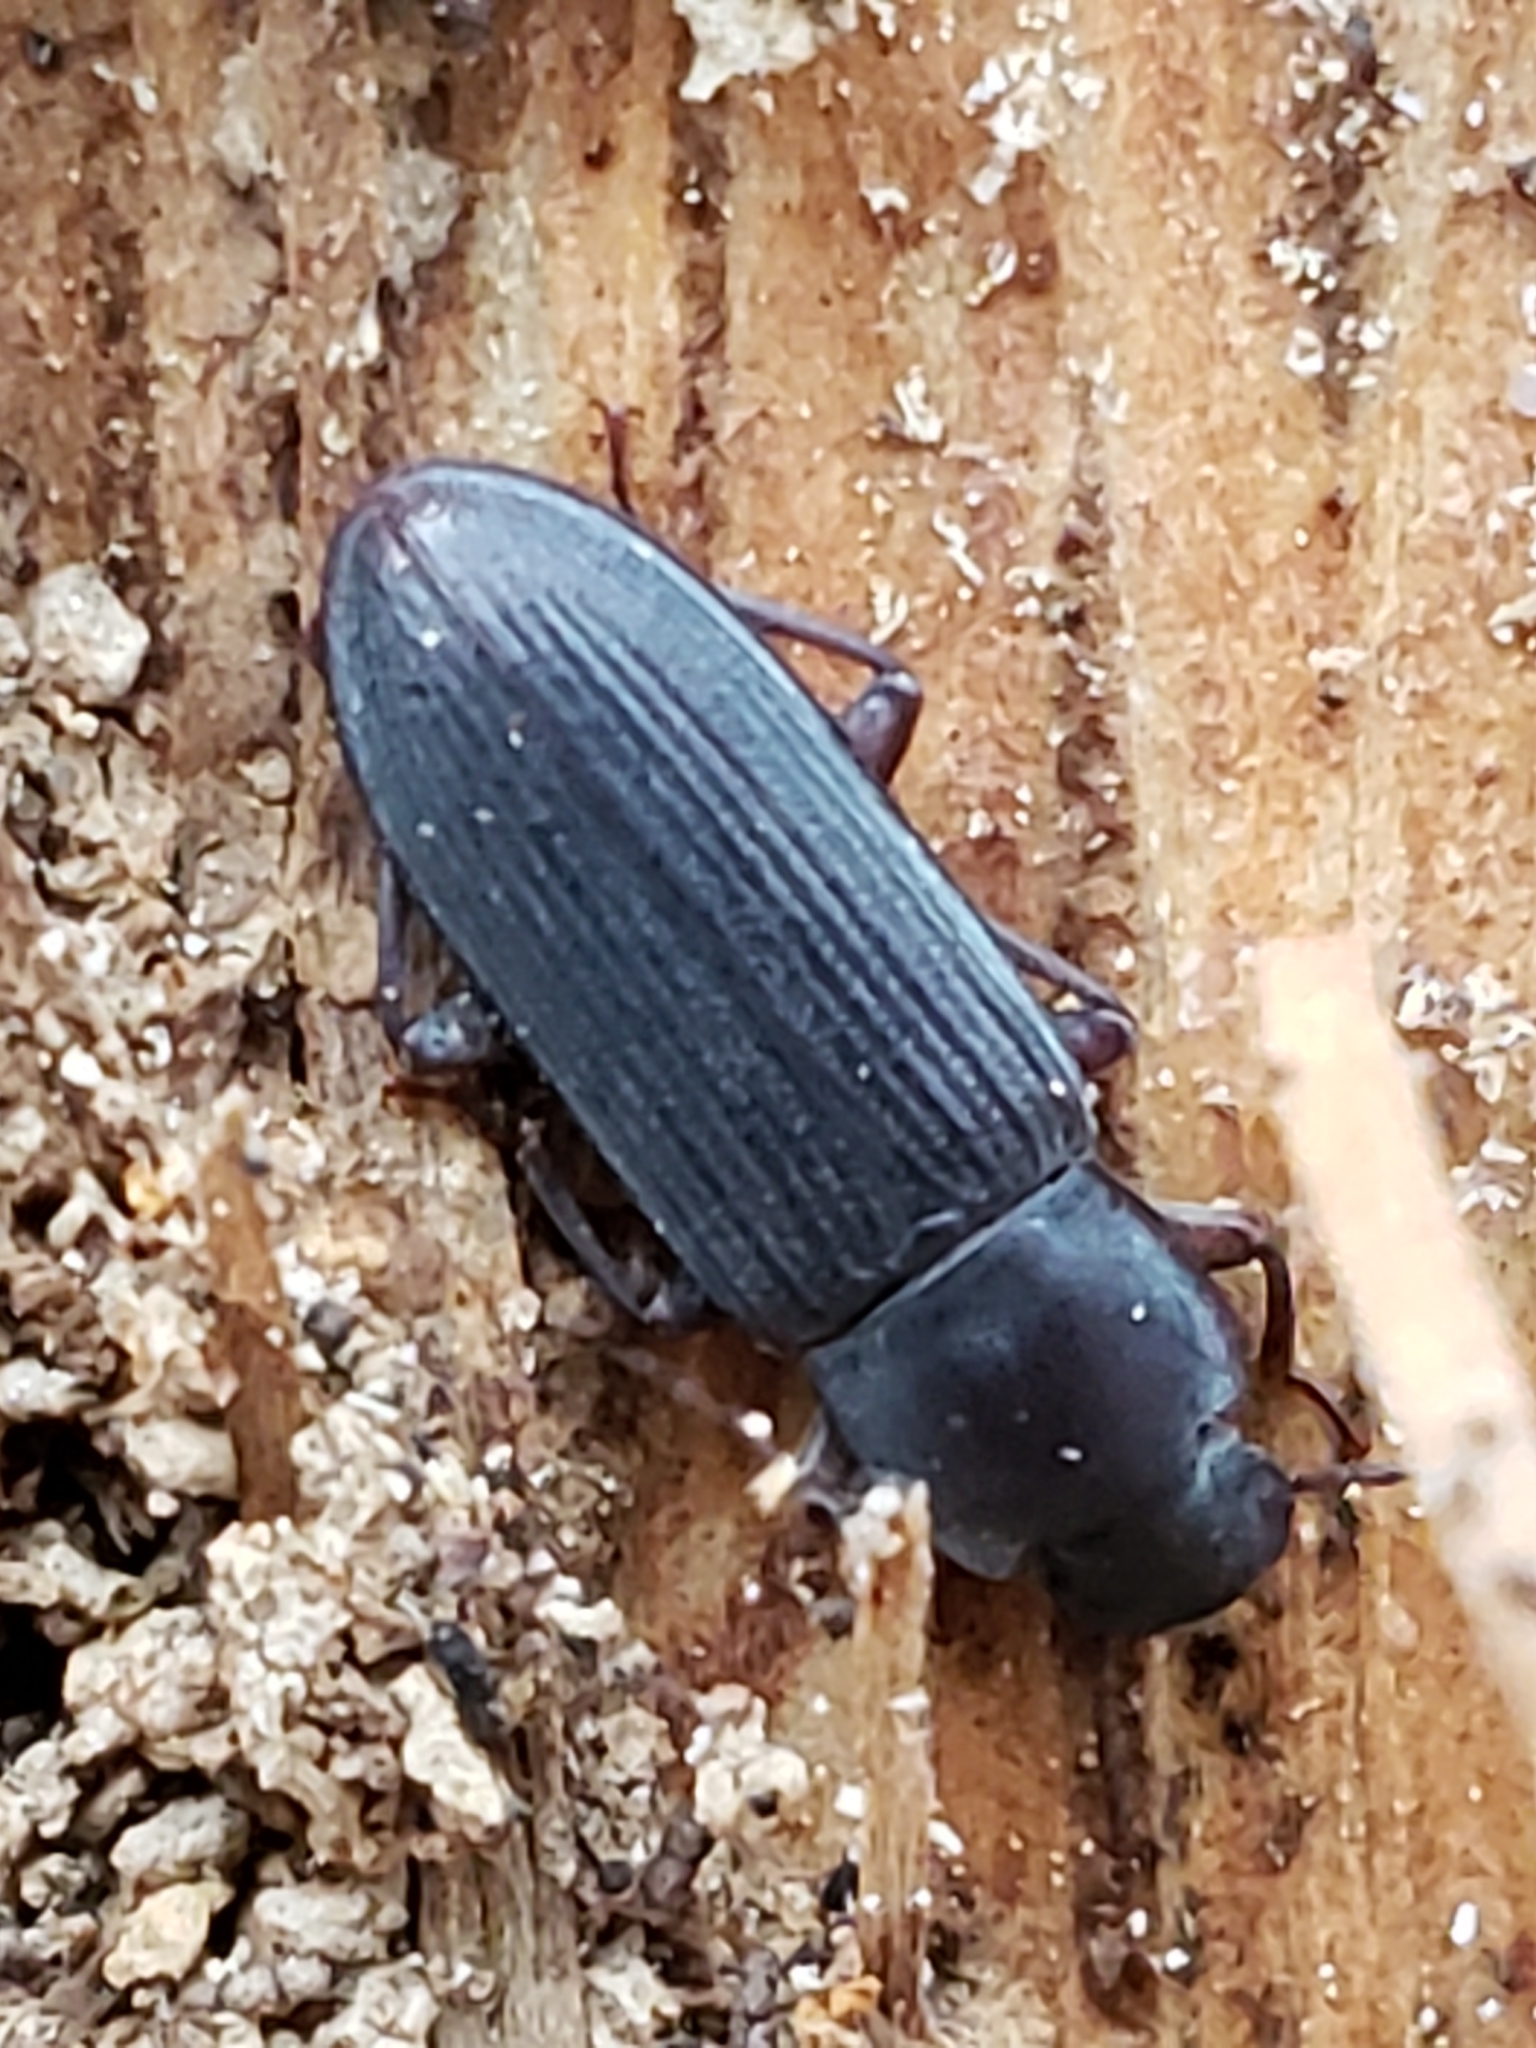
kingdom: Animalia
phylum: Arthropoda
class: Insecta
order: Coleoptera
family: Tenebrionidae
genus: Idiobates
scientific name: Idiobates castaneus
